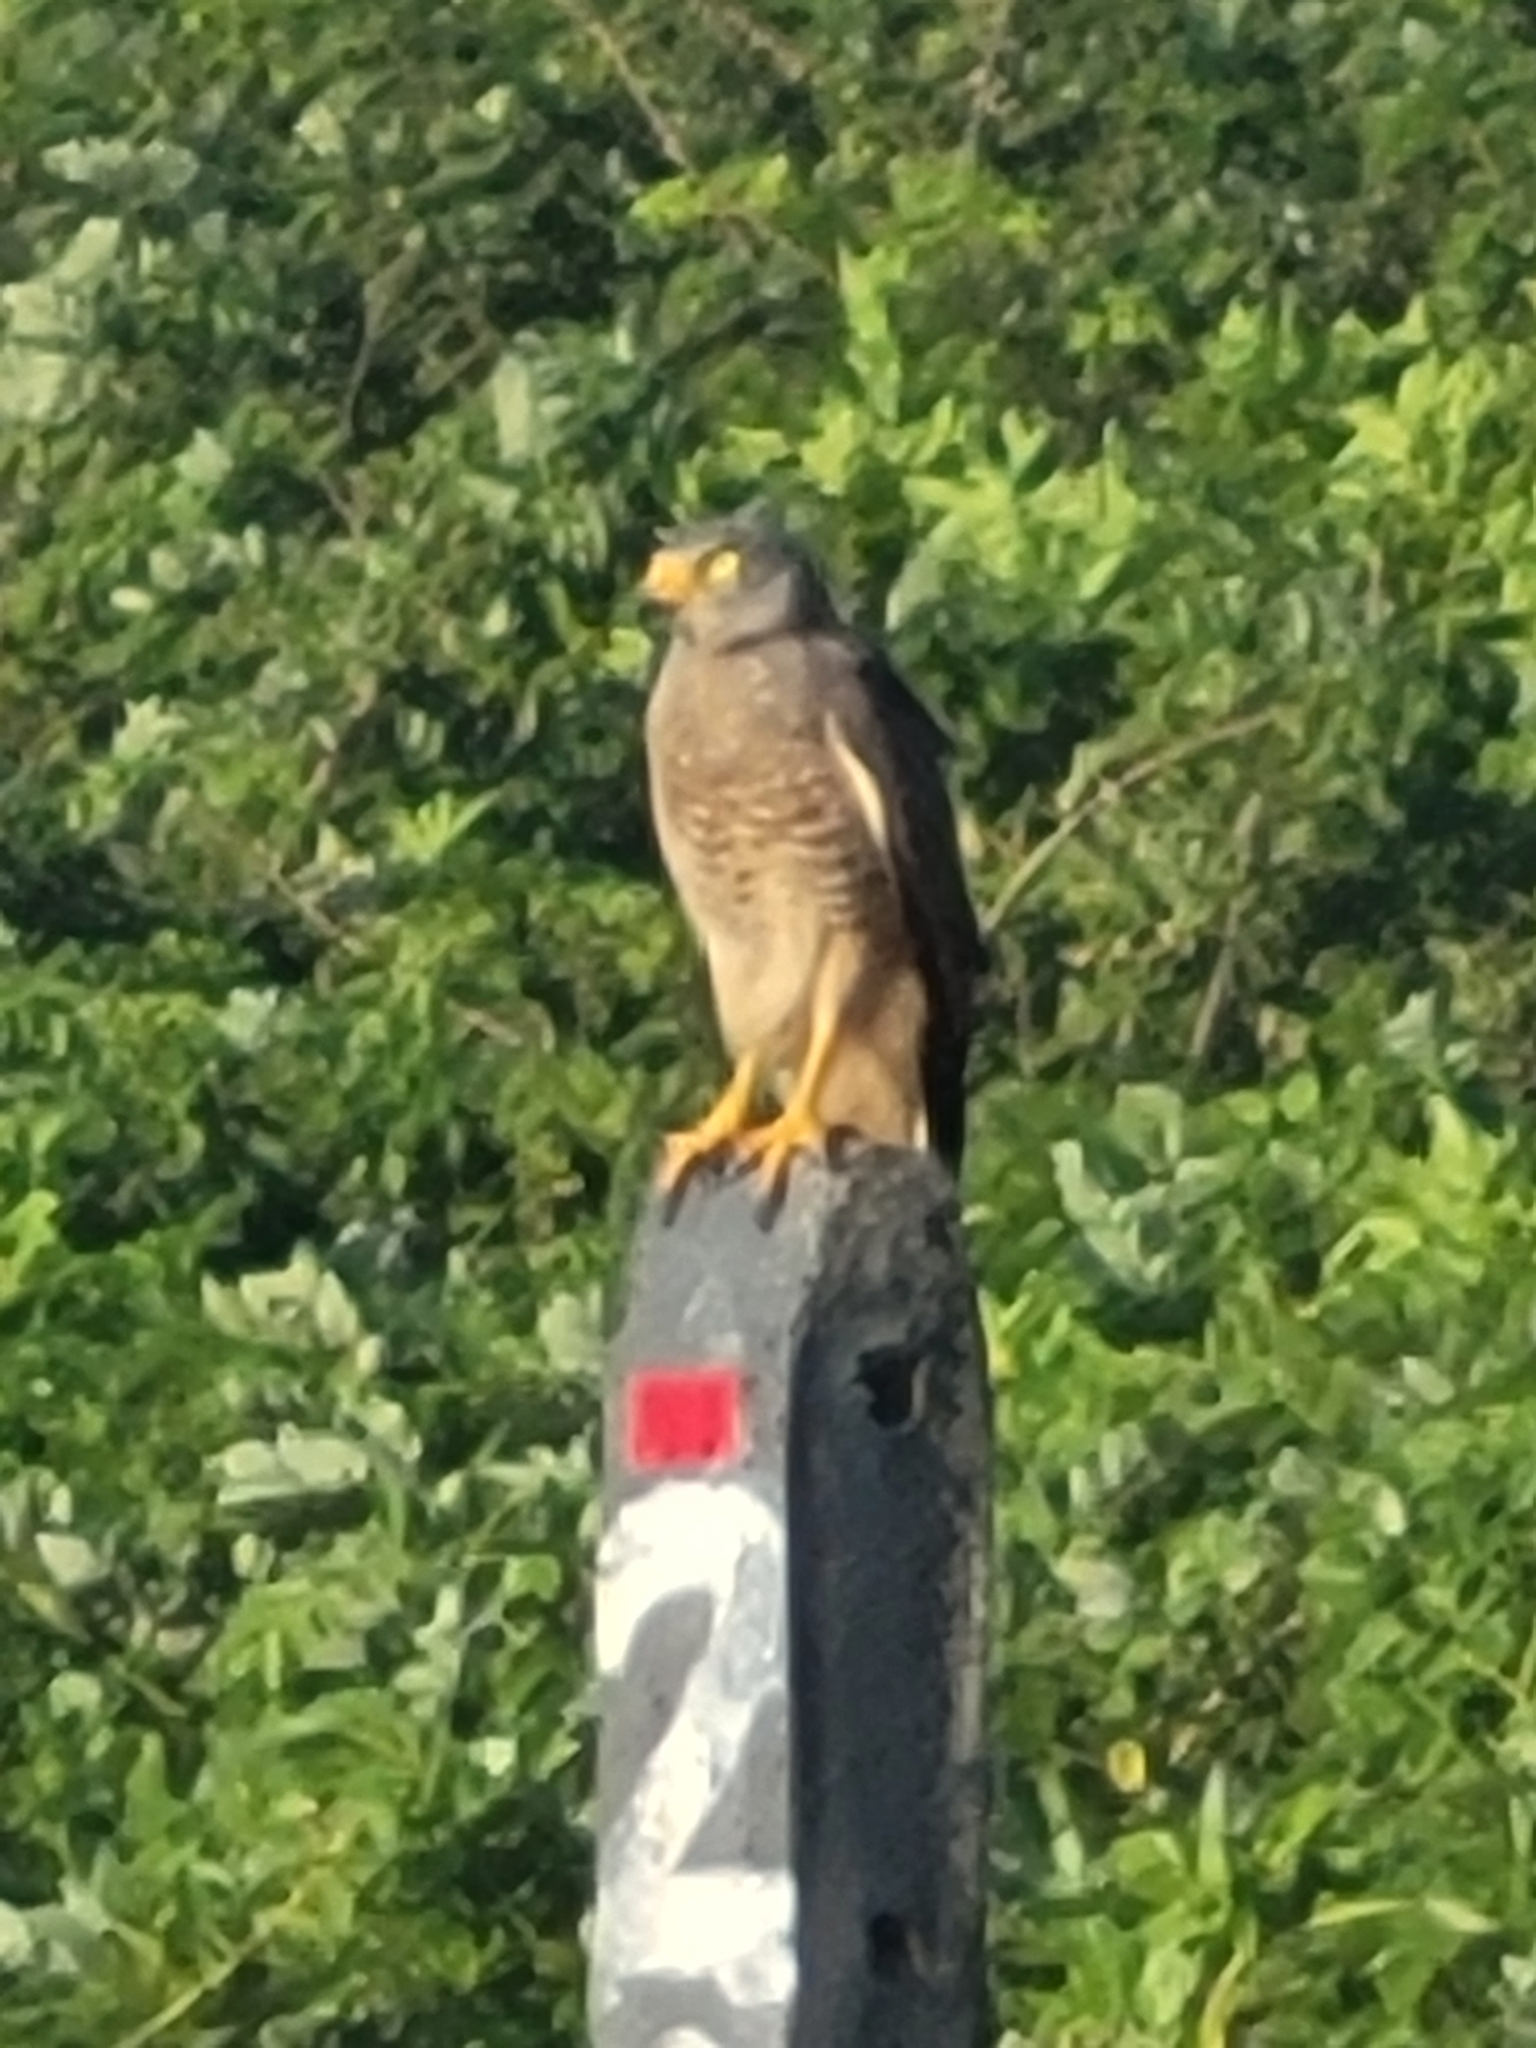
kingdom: Animalia
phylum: Chordata
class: Aves
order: Accipitriformes
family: Accipitridae
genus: Rupornis
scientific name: Rupornis magnirostris
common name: Roadside hawk
